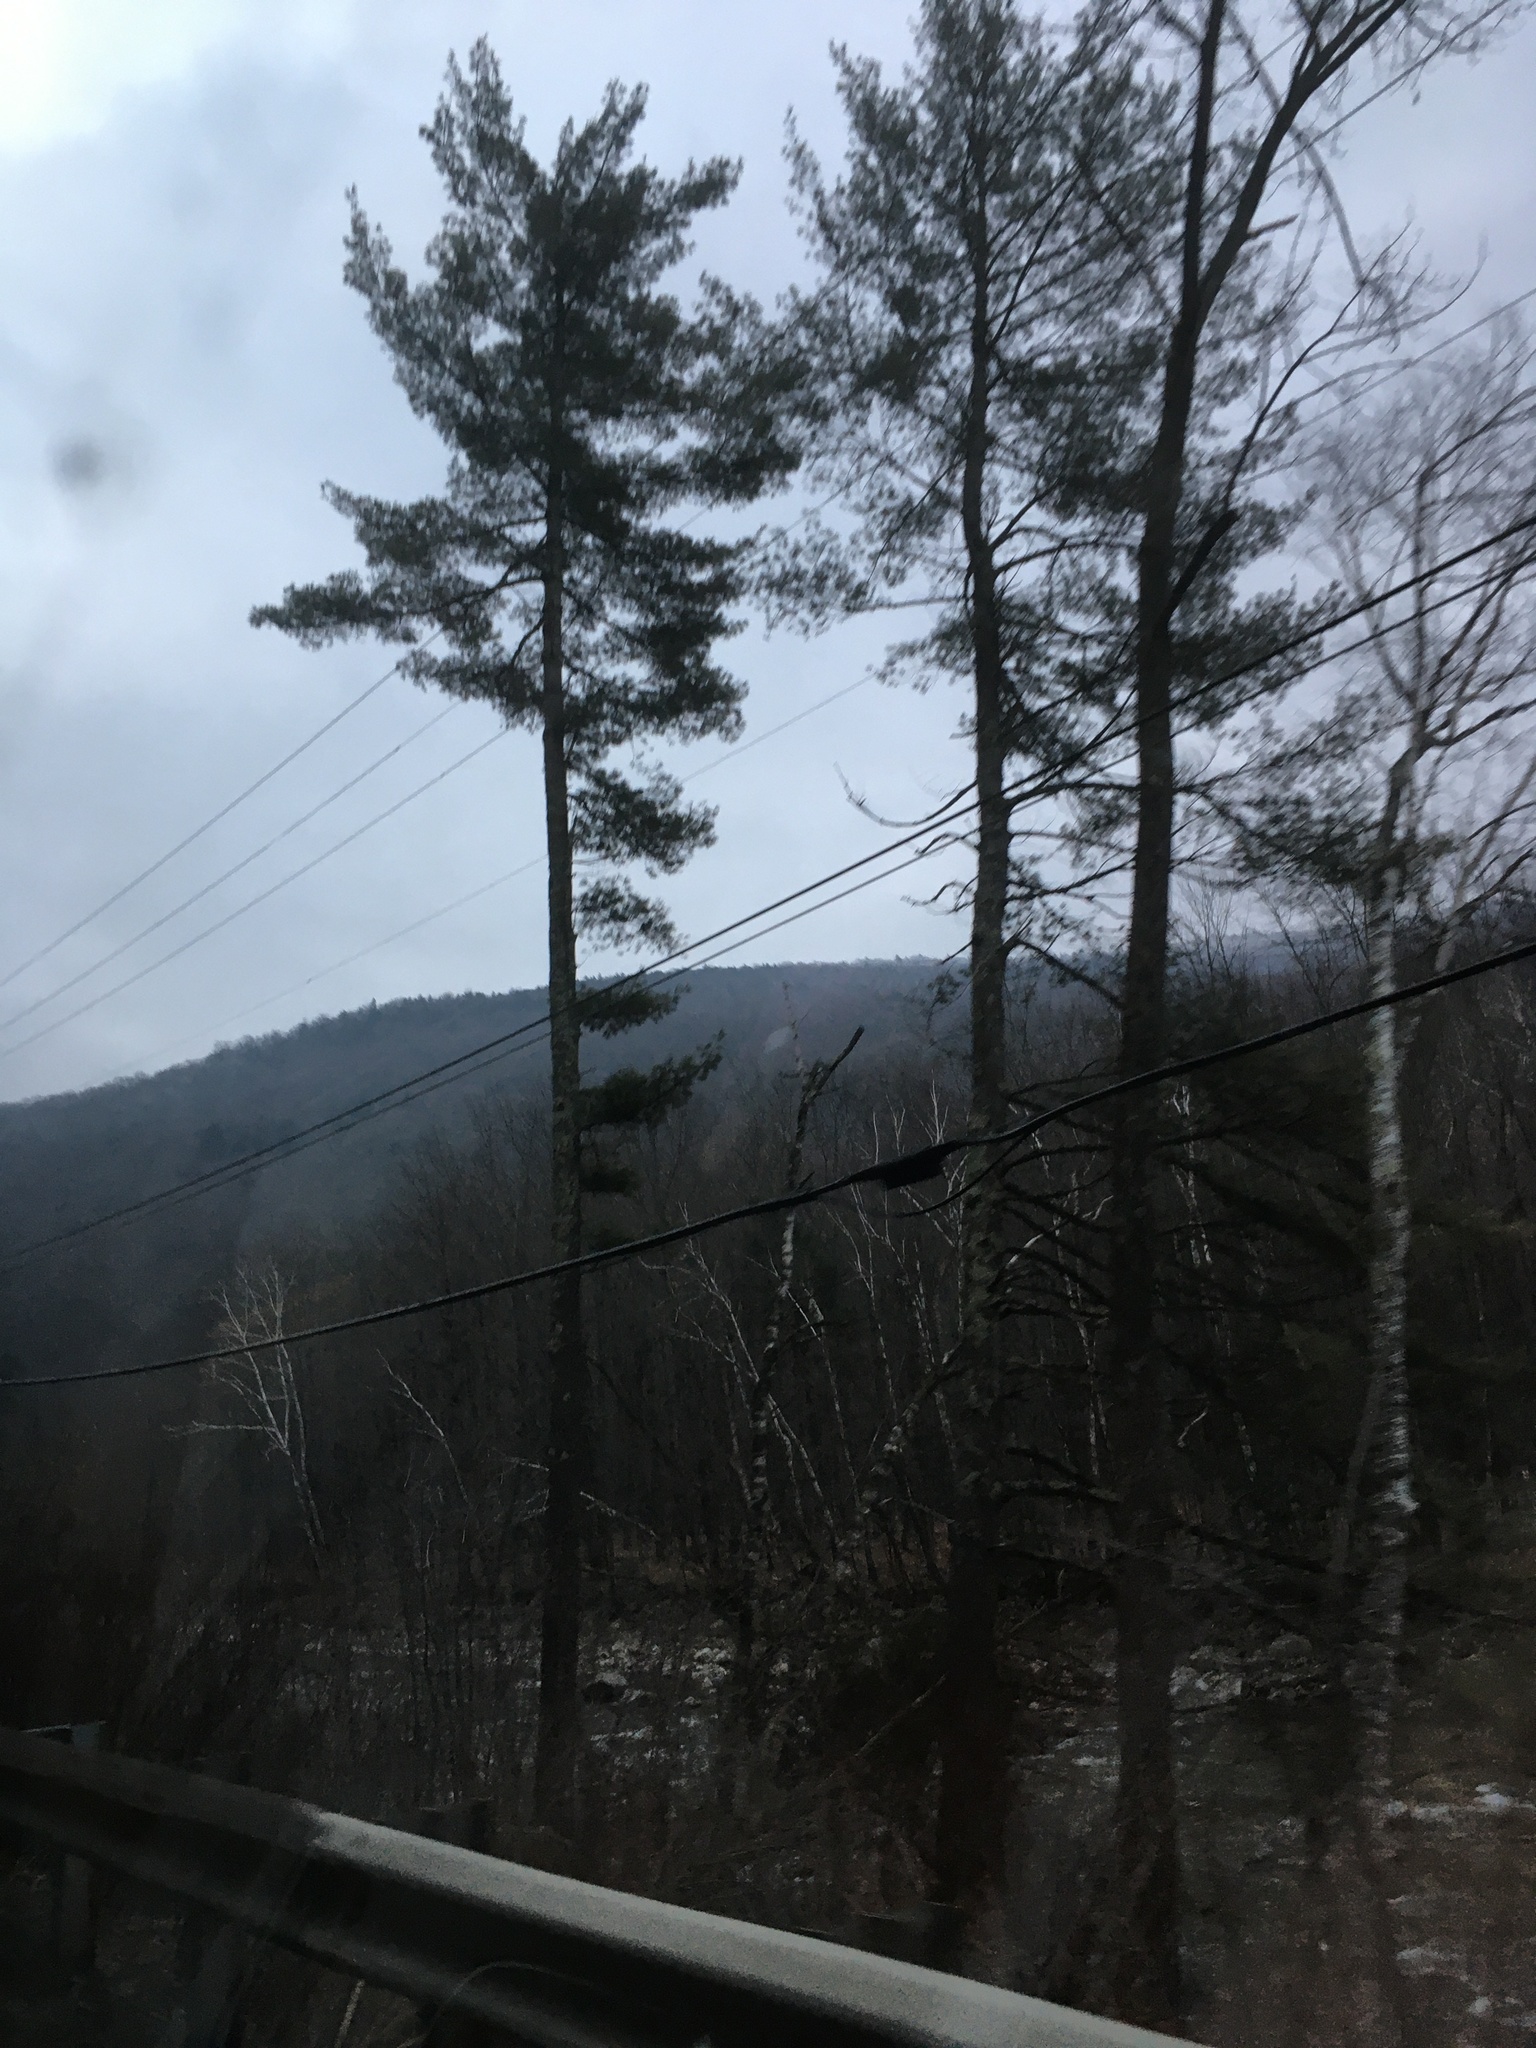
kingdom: Plantae
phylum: Tracheophyta
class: Pinopsida
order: Pinales
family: Pinaceae
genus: Pinus
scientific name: Pinus strobus
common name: Weymouth pine
